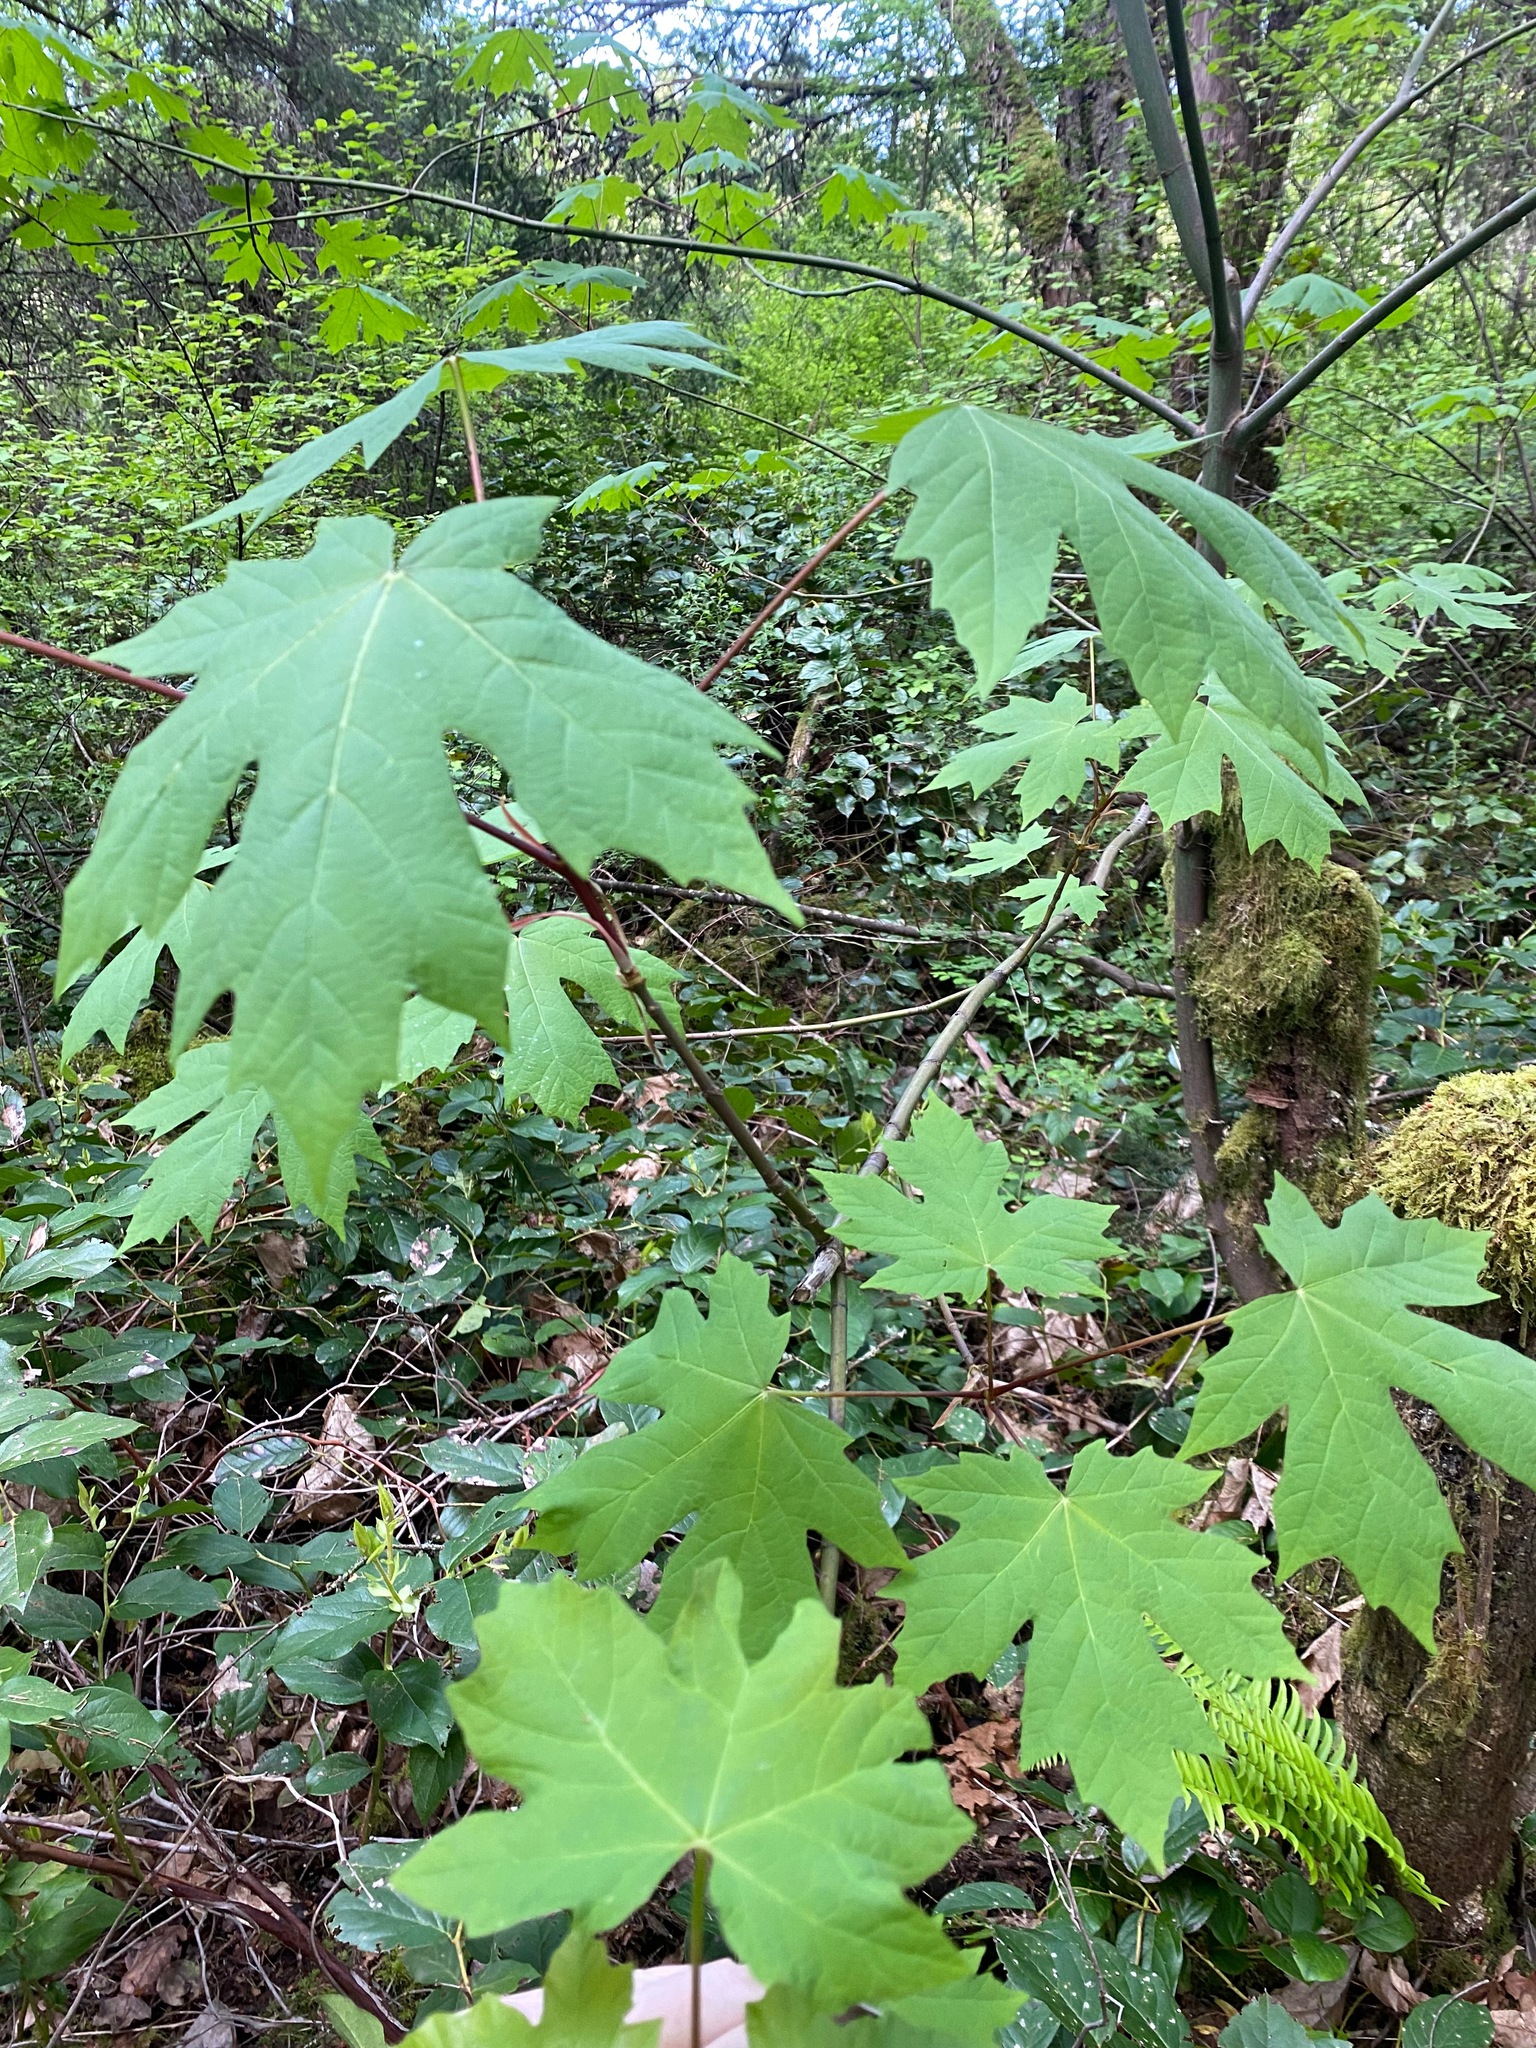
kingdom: Plantae
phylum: Tracheophyta
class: Magnoliopsida
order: Sapindales
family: Sapindaceae
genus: Acer
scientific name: Acer macrophyllum
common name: Oregon maple
